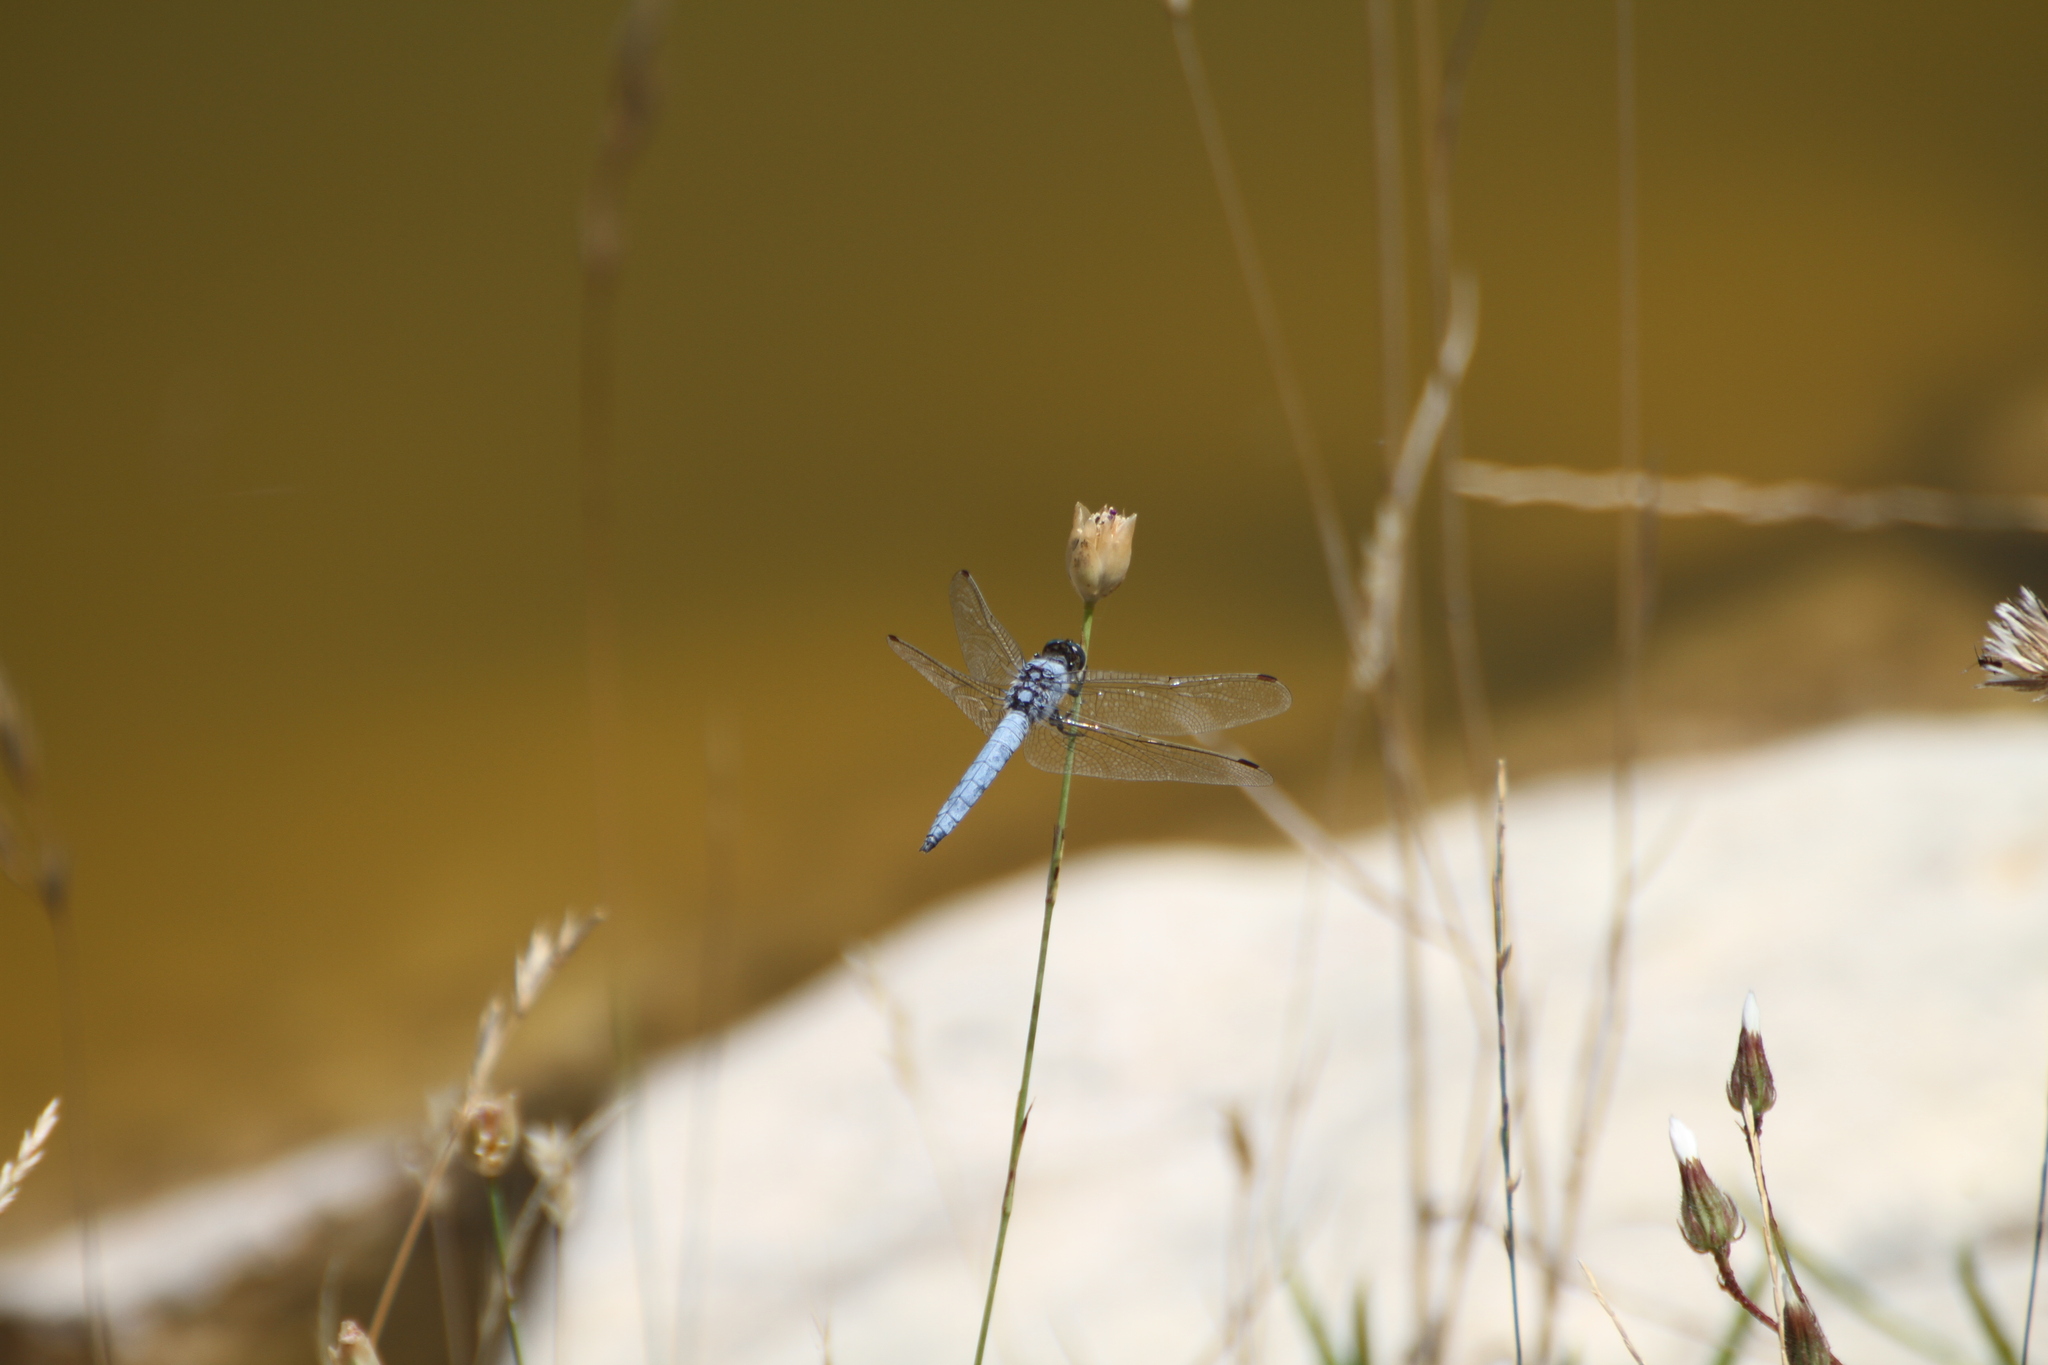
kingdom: Animalia
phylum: Arthropoda
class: Insecta
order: Odonata
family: Libellulidae
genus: Orthetrum
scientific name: Orthetrum brunneum
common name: Southern skimmer
